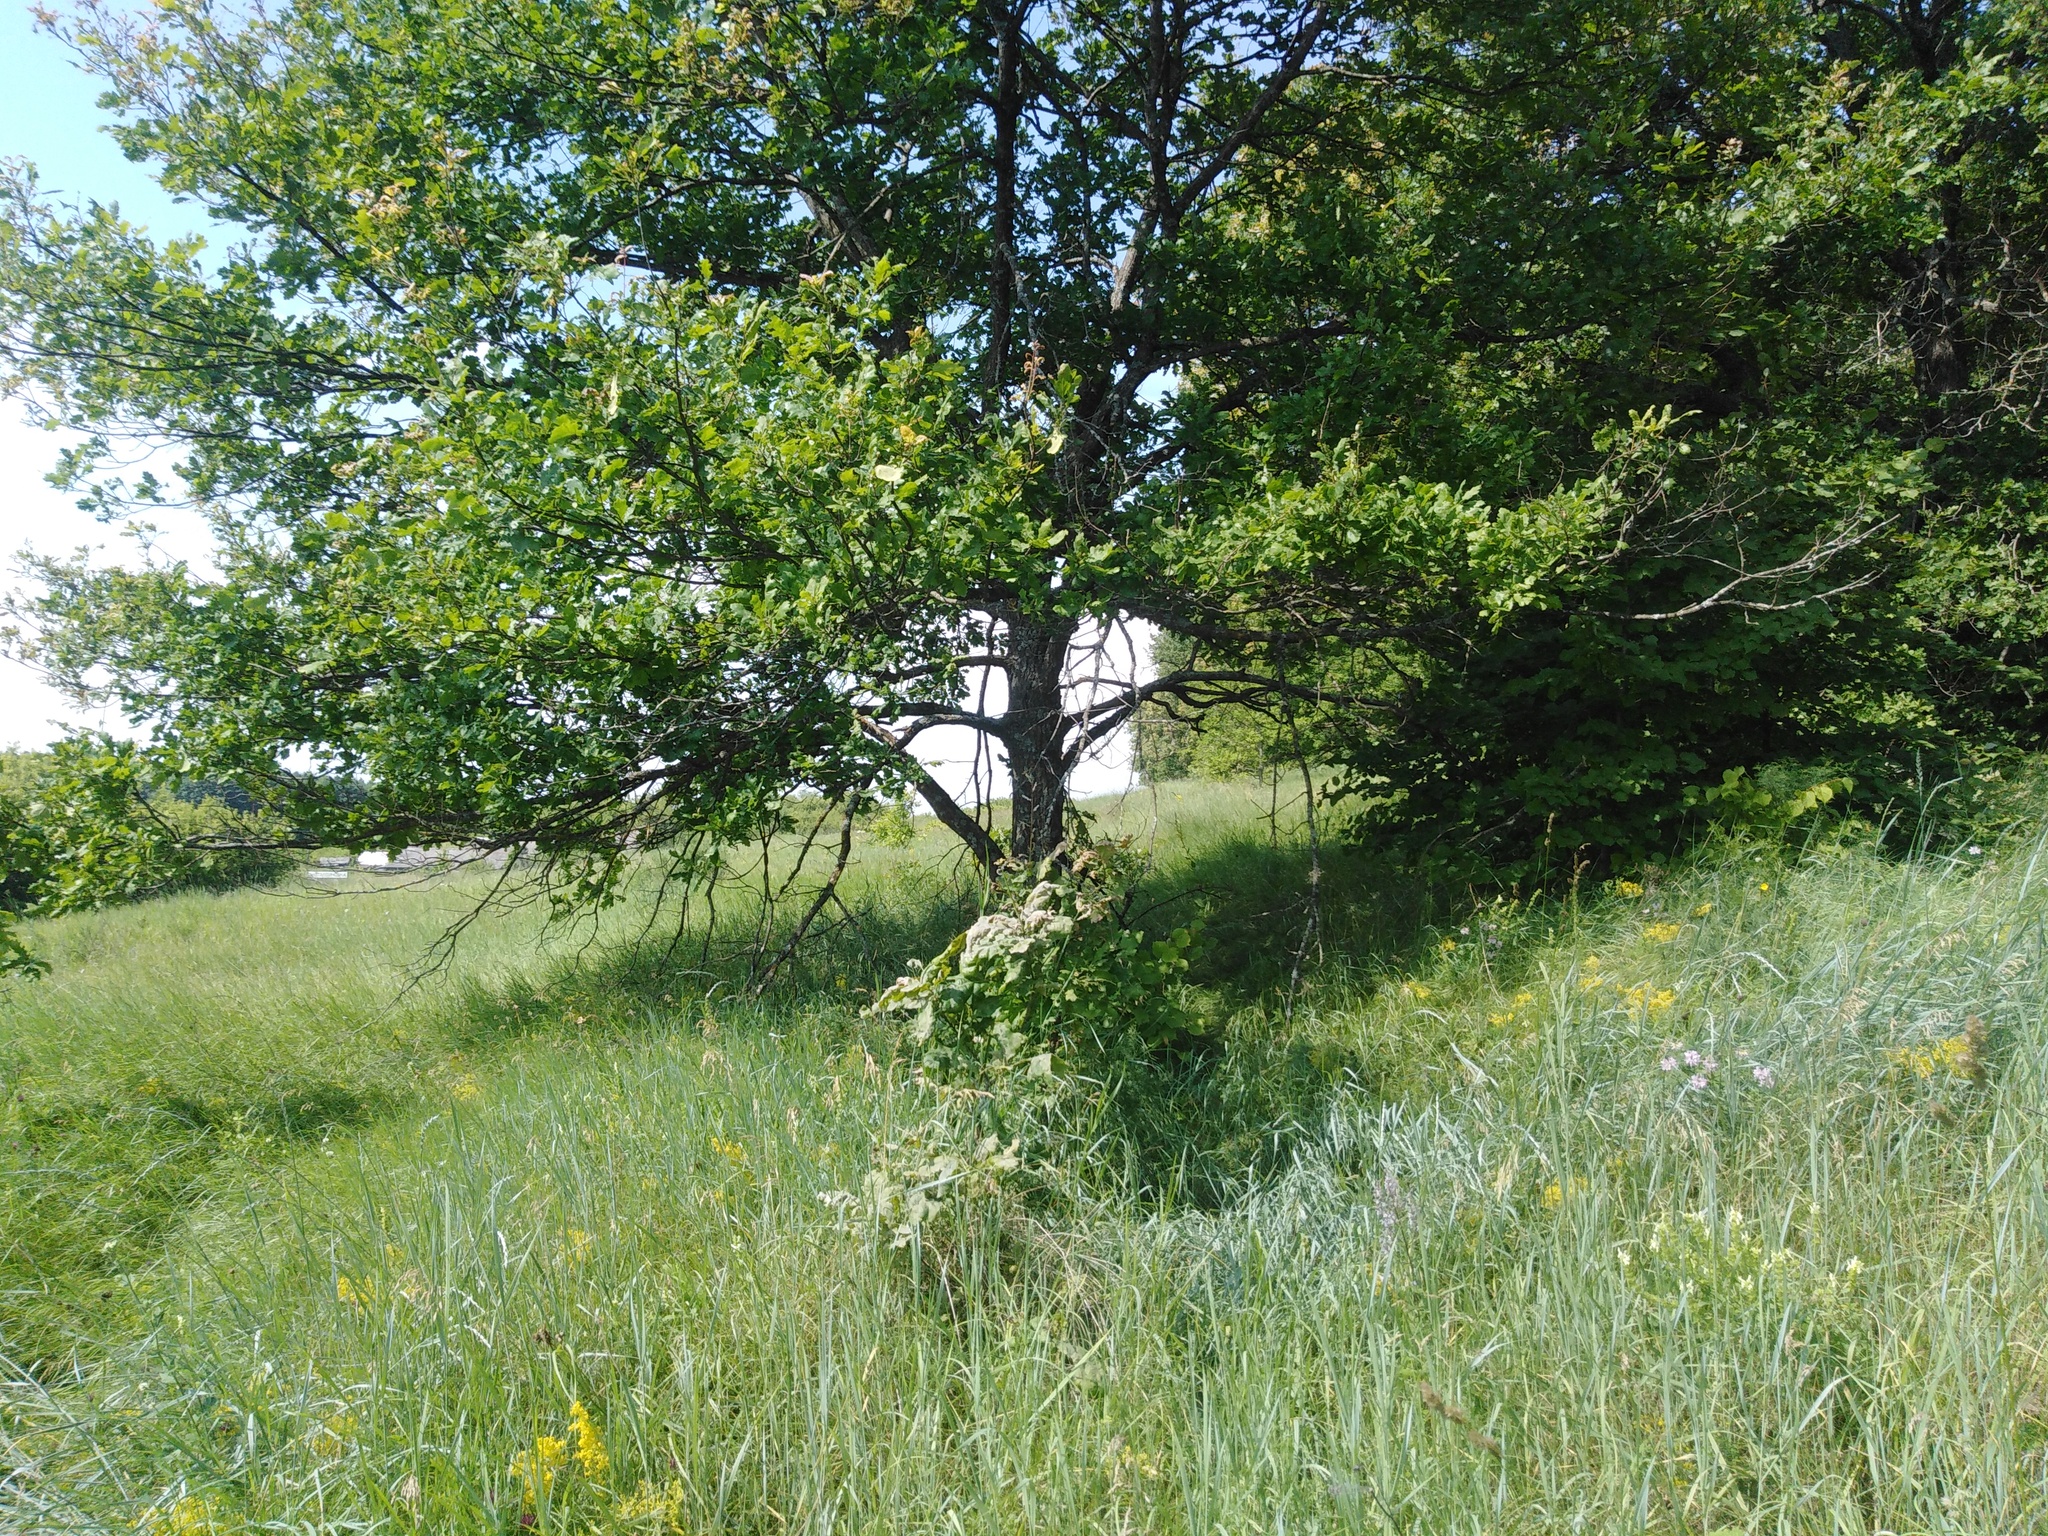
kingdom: Plantae
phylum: Tracheophyta
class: Magnoliopsida
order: Fagales
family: Fagaceae
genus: Quercus
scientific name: Quercus robur
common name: Pedunculate oak
